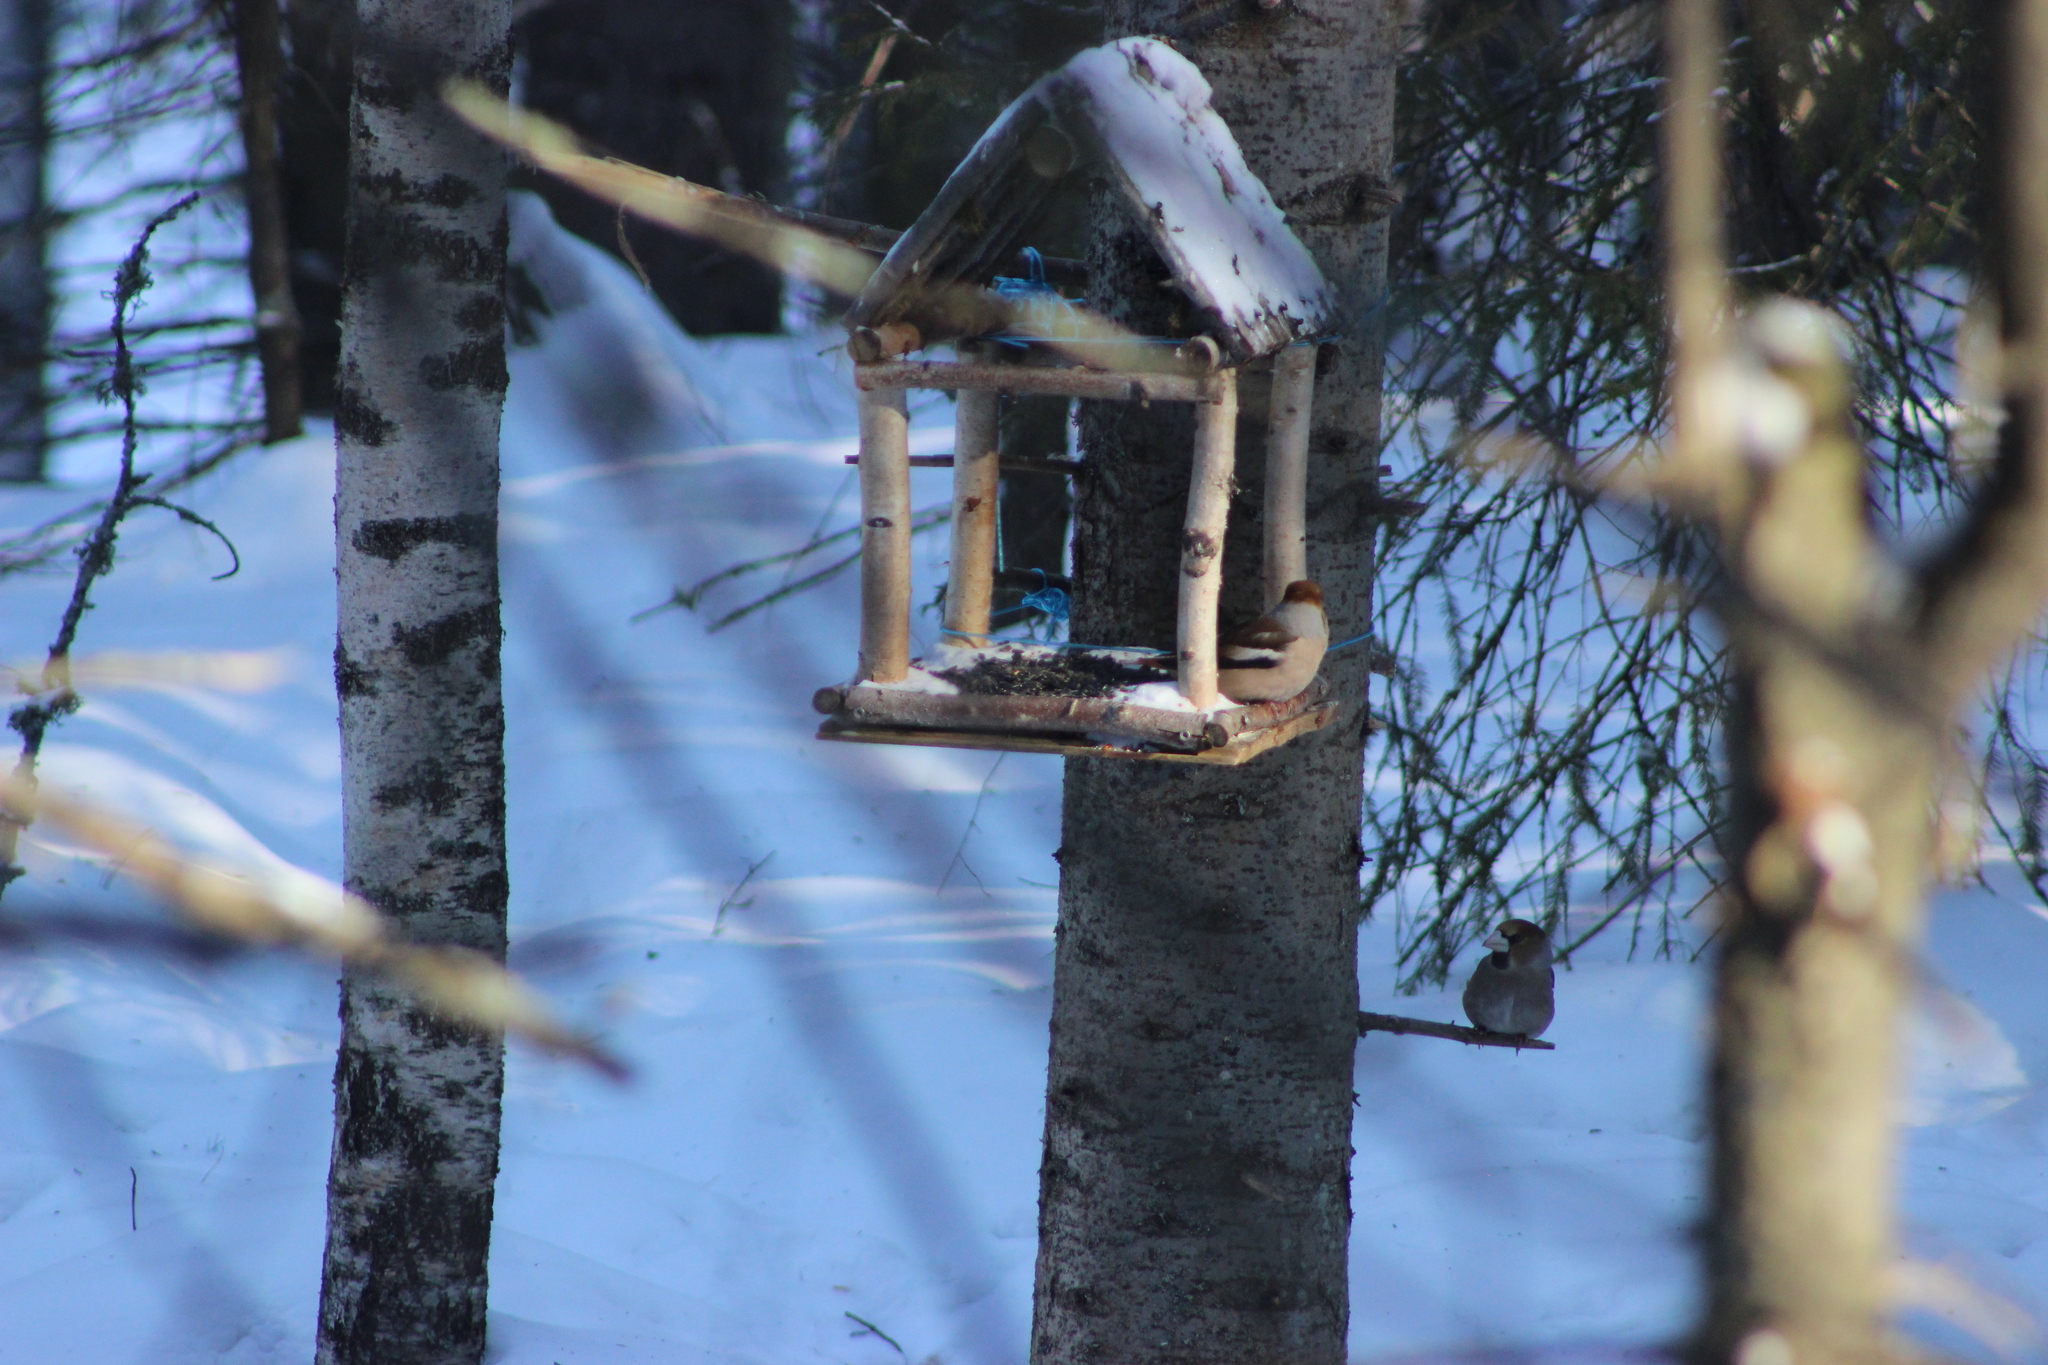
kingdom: Animalia
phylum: Chordata
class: Aves
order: Passeriformes
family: Fringillidae
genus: Coccothraustes
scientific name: Coccothraustes coccothraustes
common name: Hawfinch
